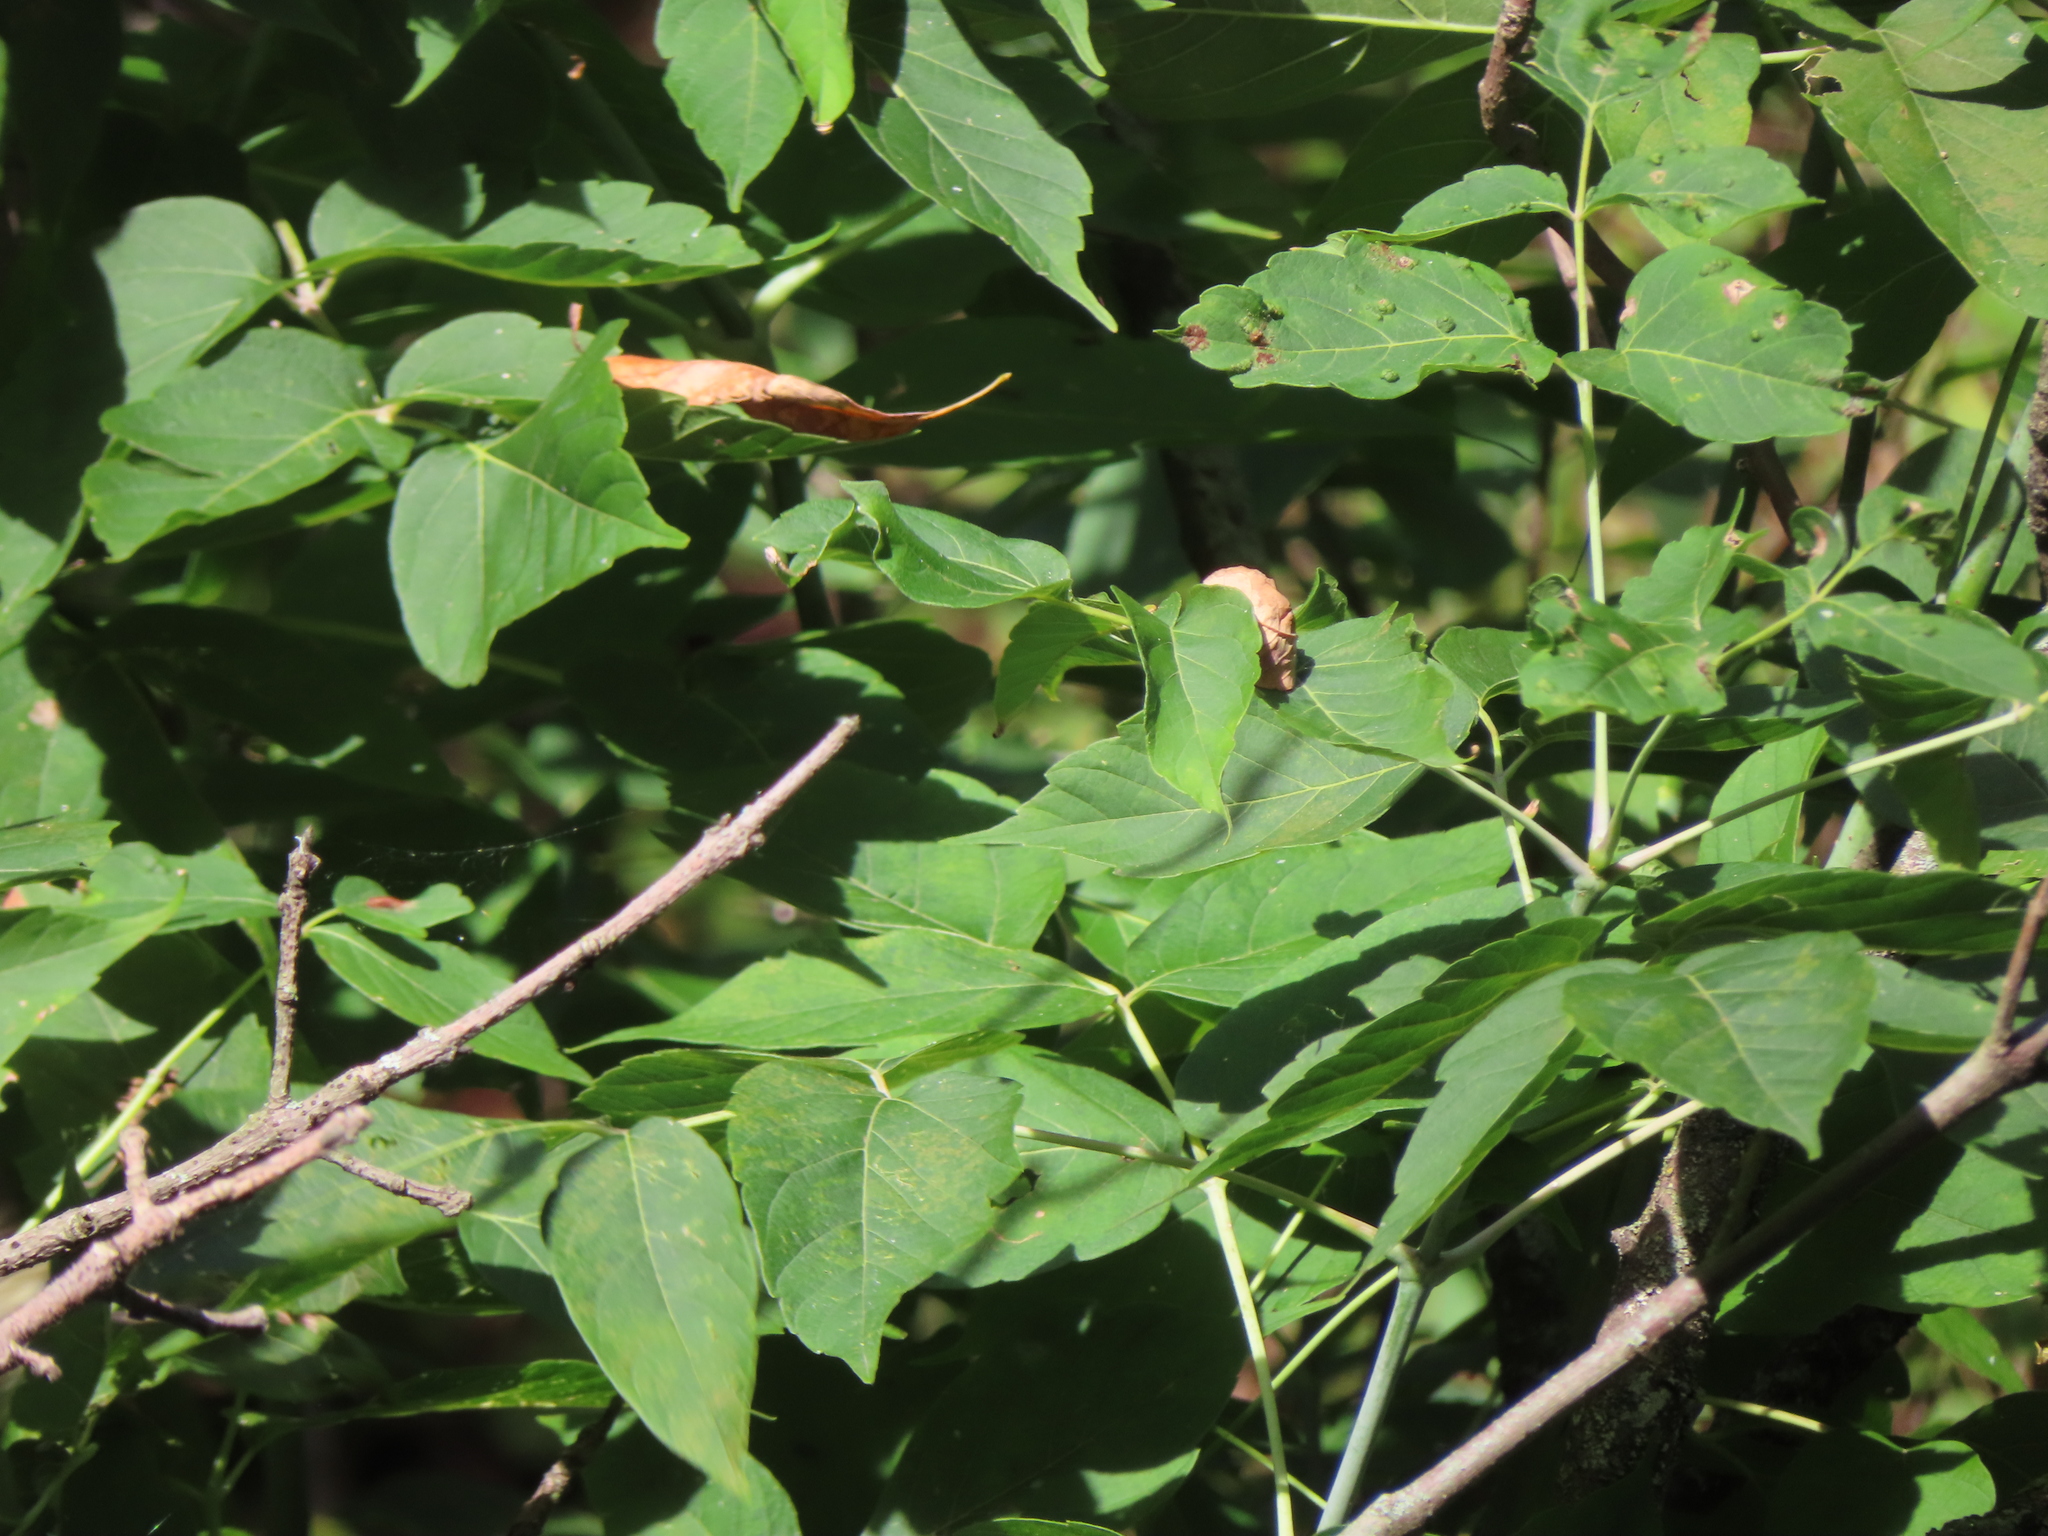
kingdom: Plantae
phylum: Tracheophyta
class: Magnoliopsida
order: Sapindales
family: Sapindaceae
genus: Acer
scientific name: Acer negundo
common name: Ashleaf maple
